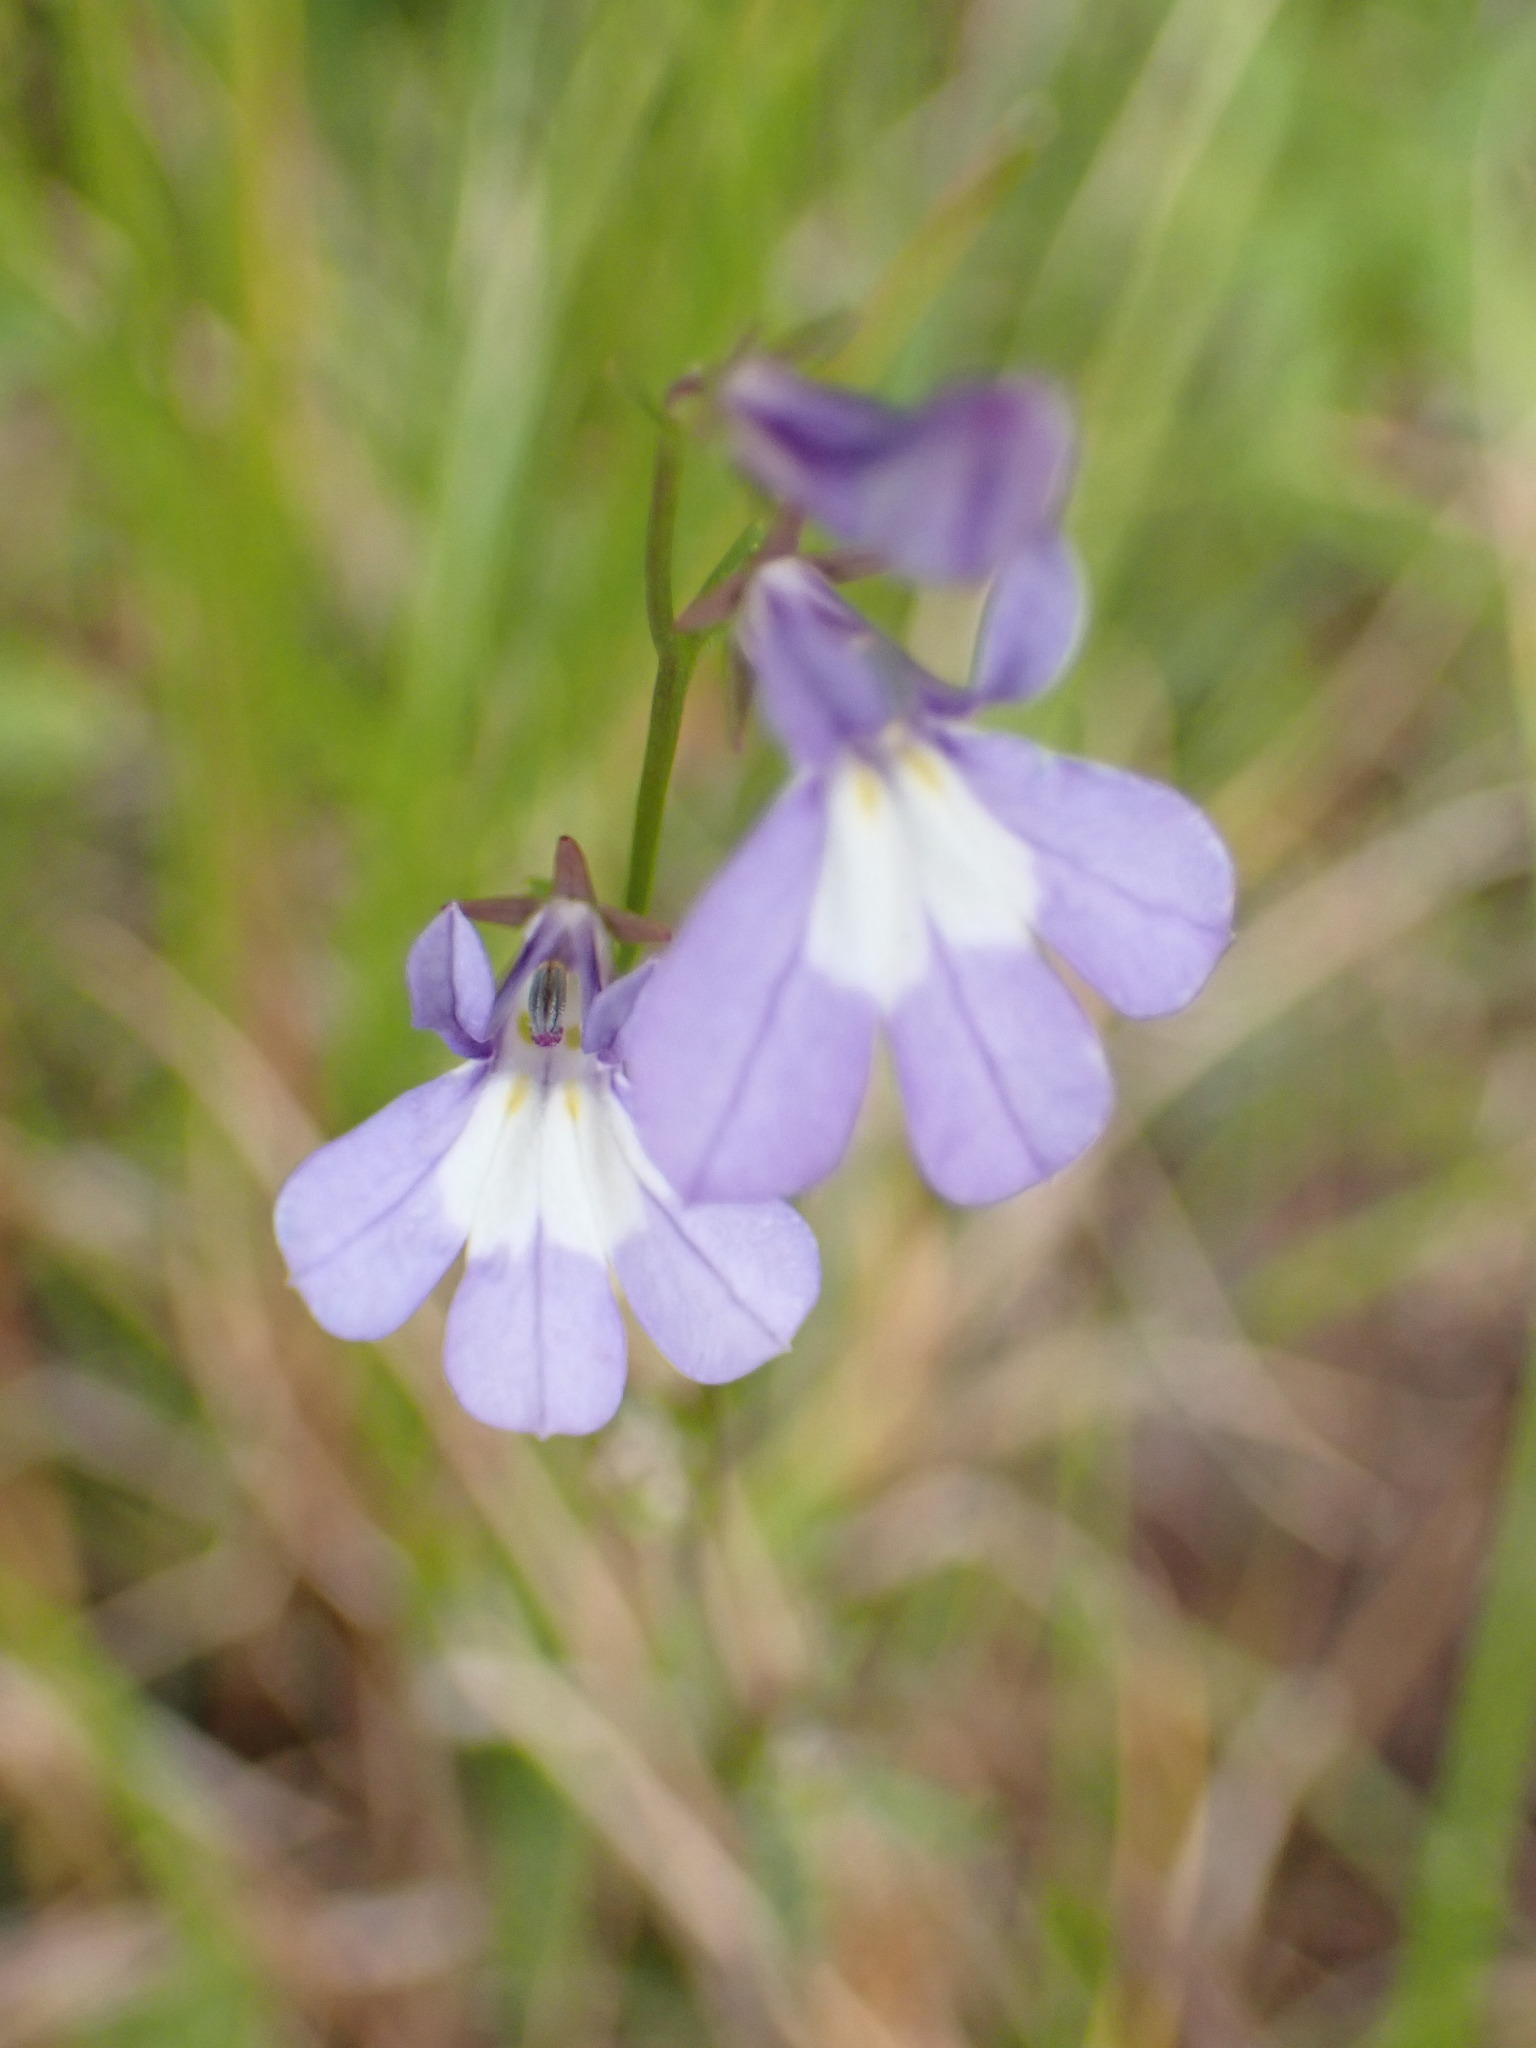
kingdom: Plantae
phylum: Tracheophyta
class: Magnoliopsida
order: Asterales
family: Campanulaceae
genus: Lobelia
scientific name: Lobelia kalmii
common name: Kalm's lobelia
